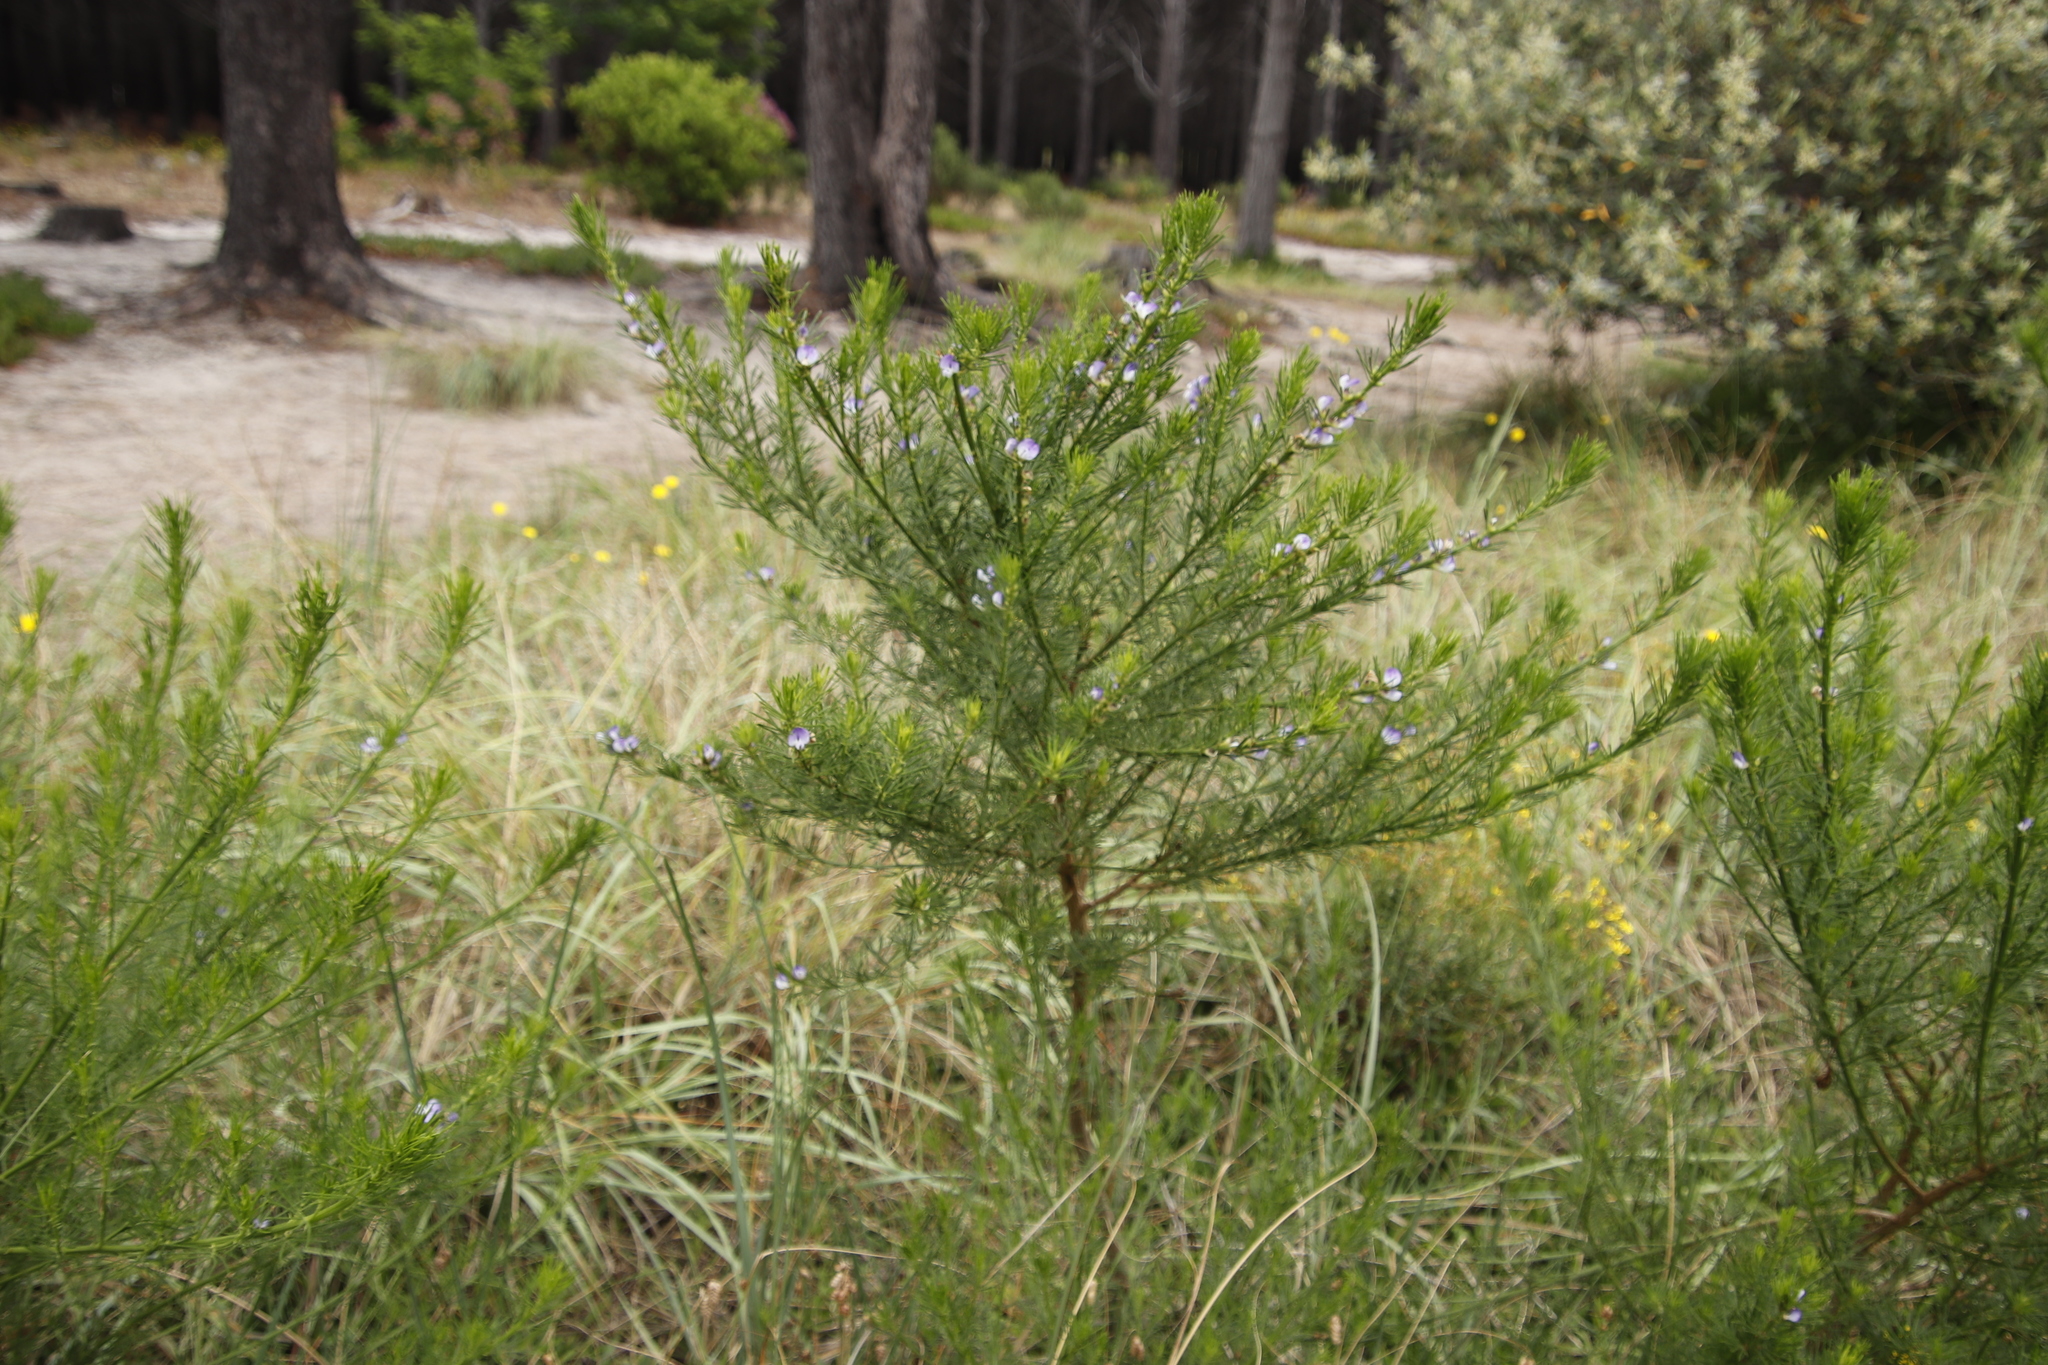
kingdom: Plantae
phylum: Tracheophyta
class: Magnoliopsida
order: Fabales
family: Fabaceae
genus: Psoralea
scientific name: Psoralea pinnata
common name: African scurfpea
